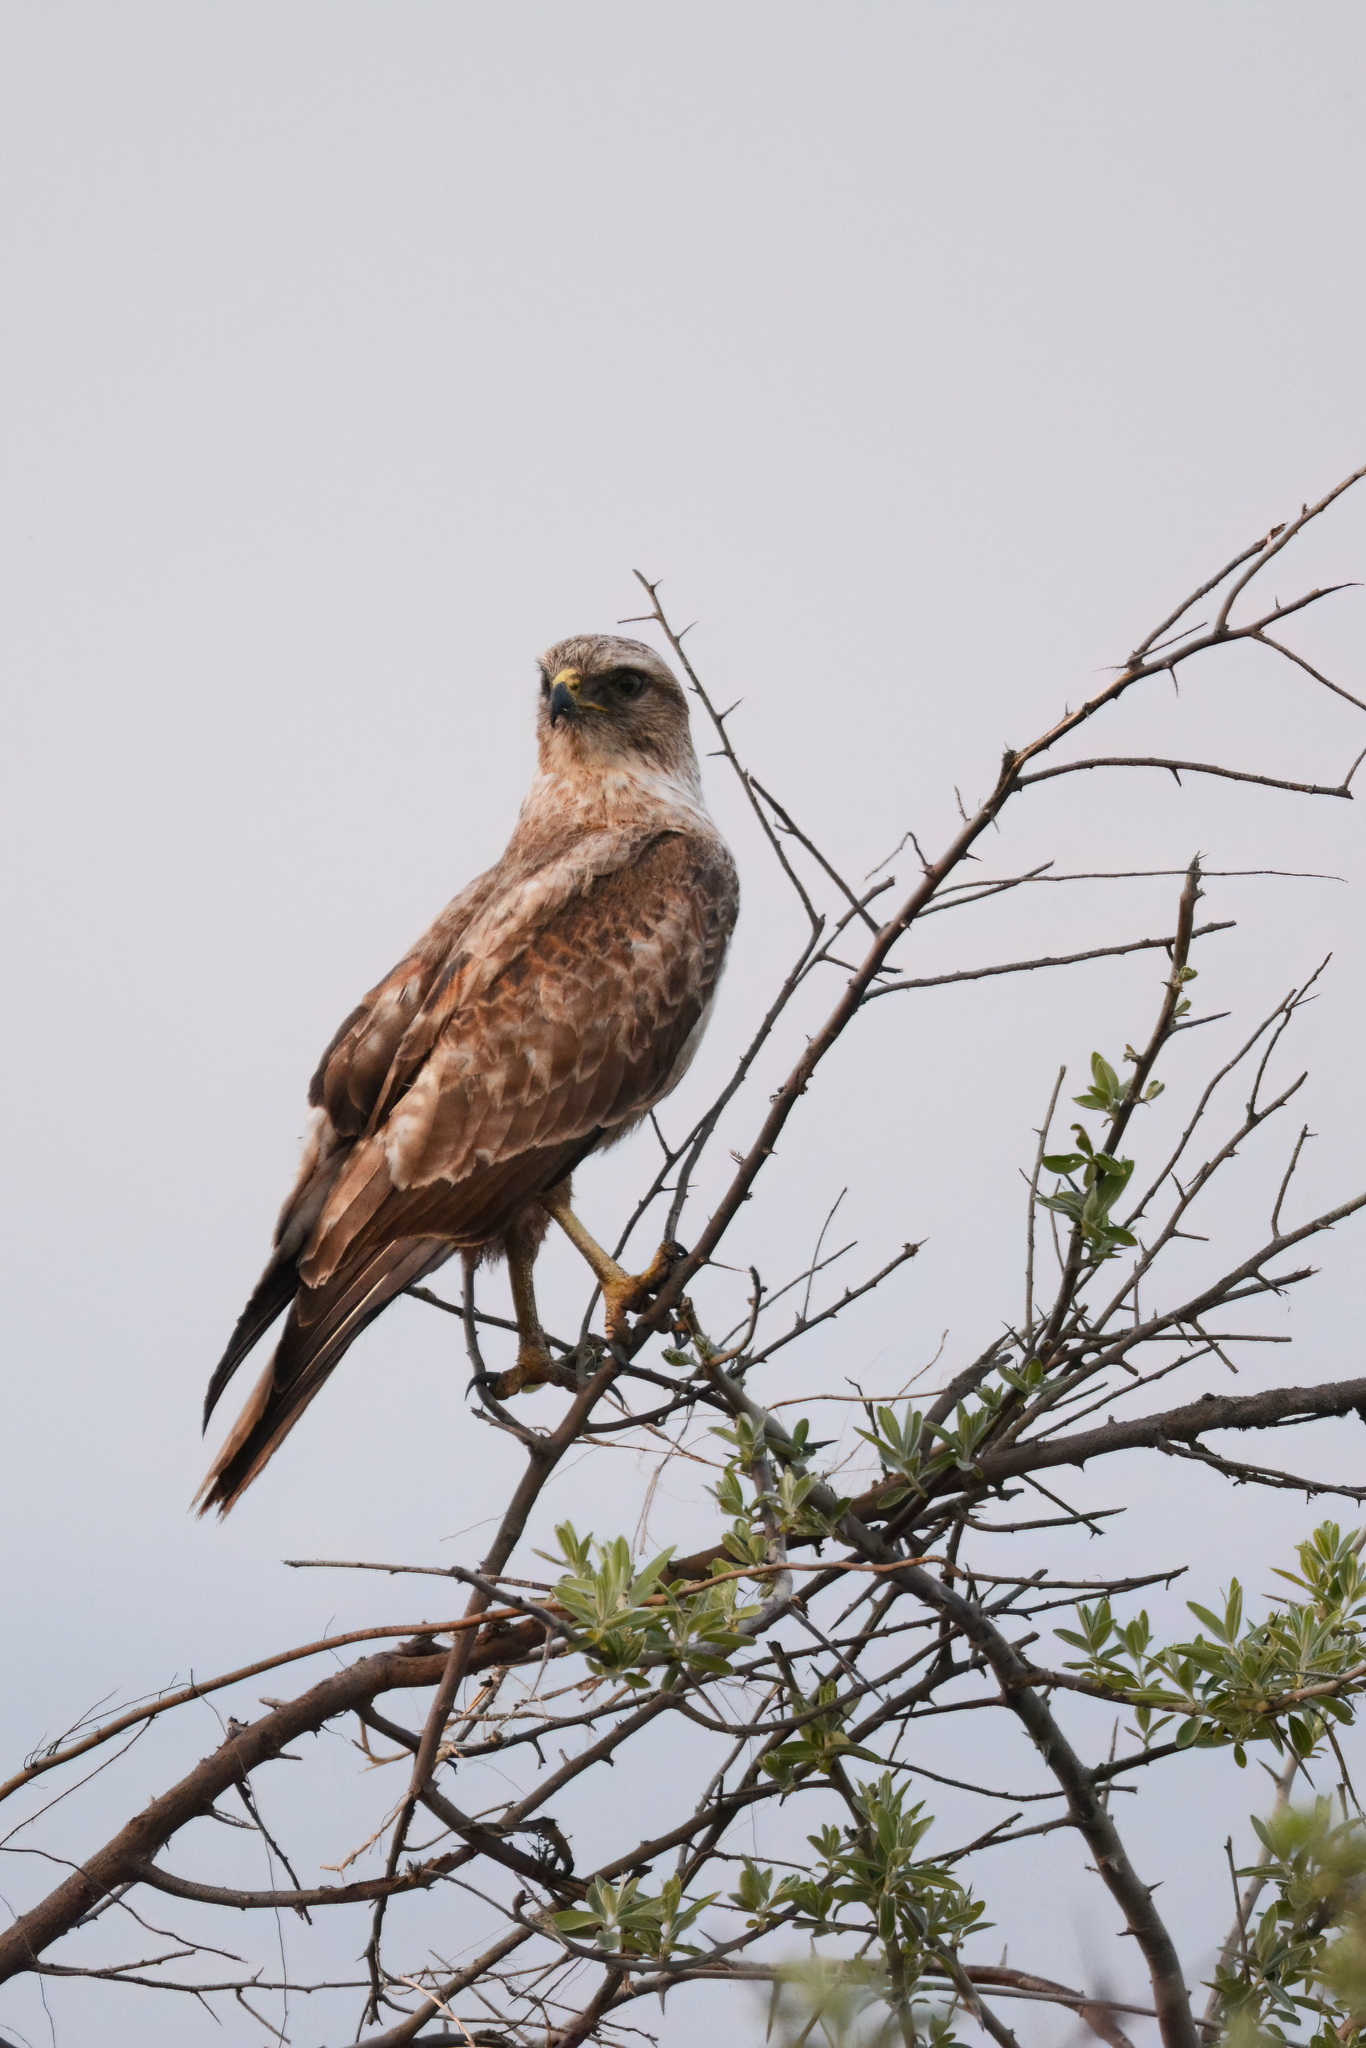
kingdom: Animalia
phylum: Chordata
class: Aves
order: Accipitriformes
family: Accipitridae
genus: Buteo
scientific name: Buteo rufinus
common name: Long-legged buzzard
